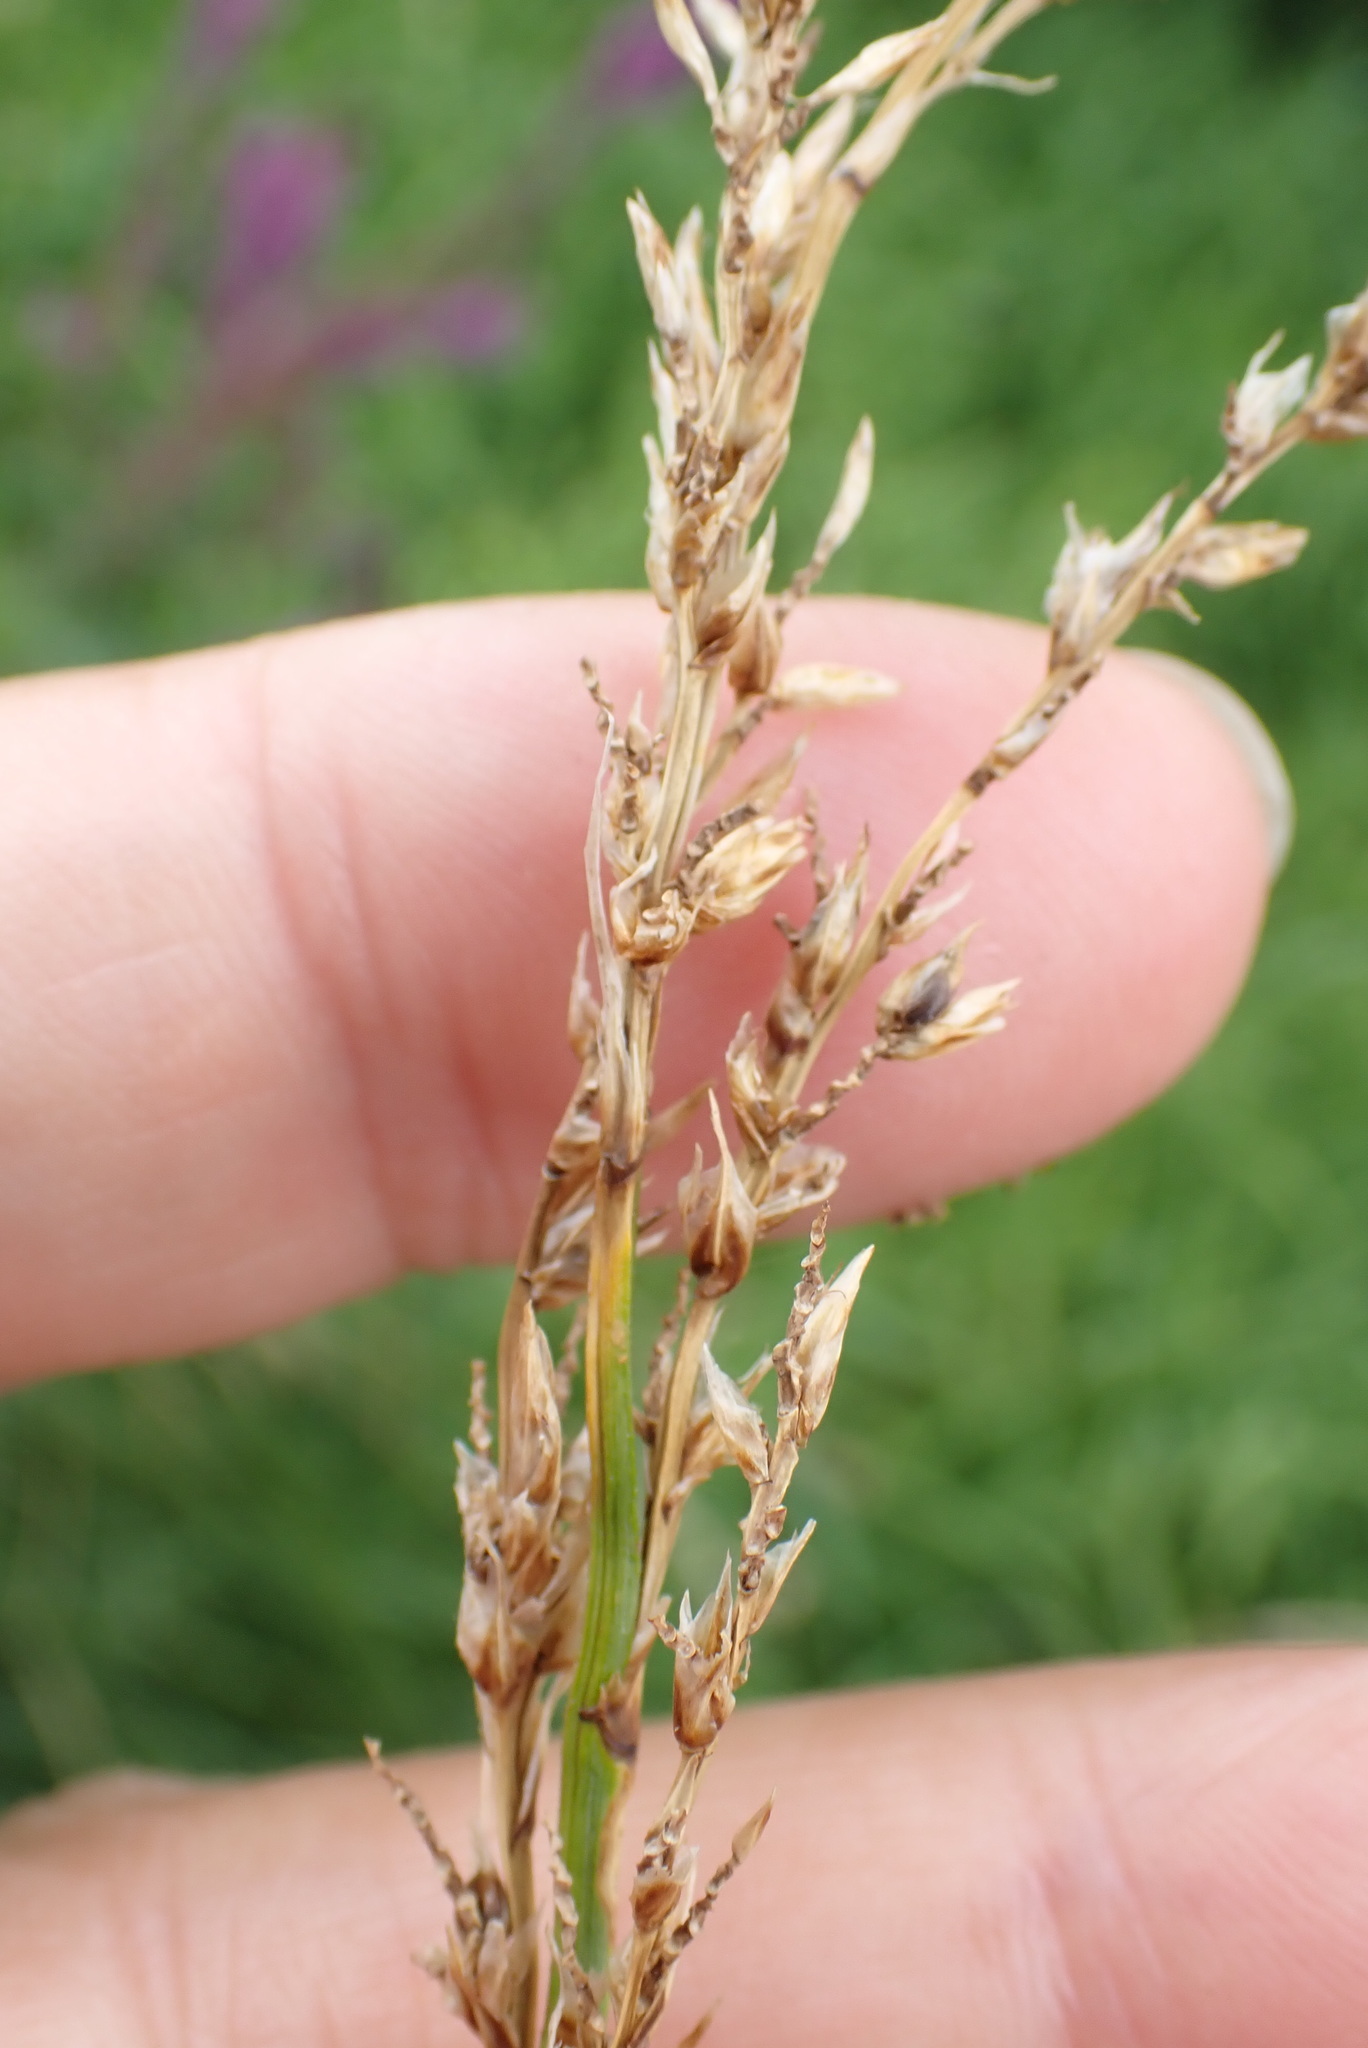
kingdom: Plantae
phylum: Tracheophyta
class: Liliopsida
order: Poales
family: Cyperaceae
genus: Carex
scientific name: Carex paniculata
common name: Greater tussock-sedge
